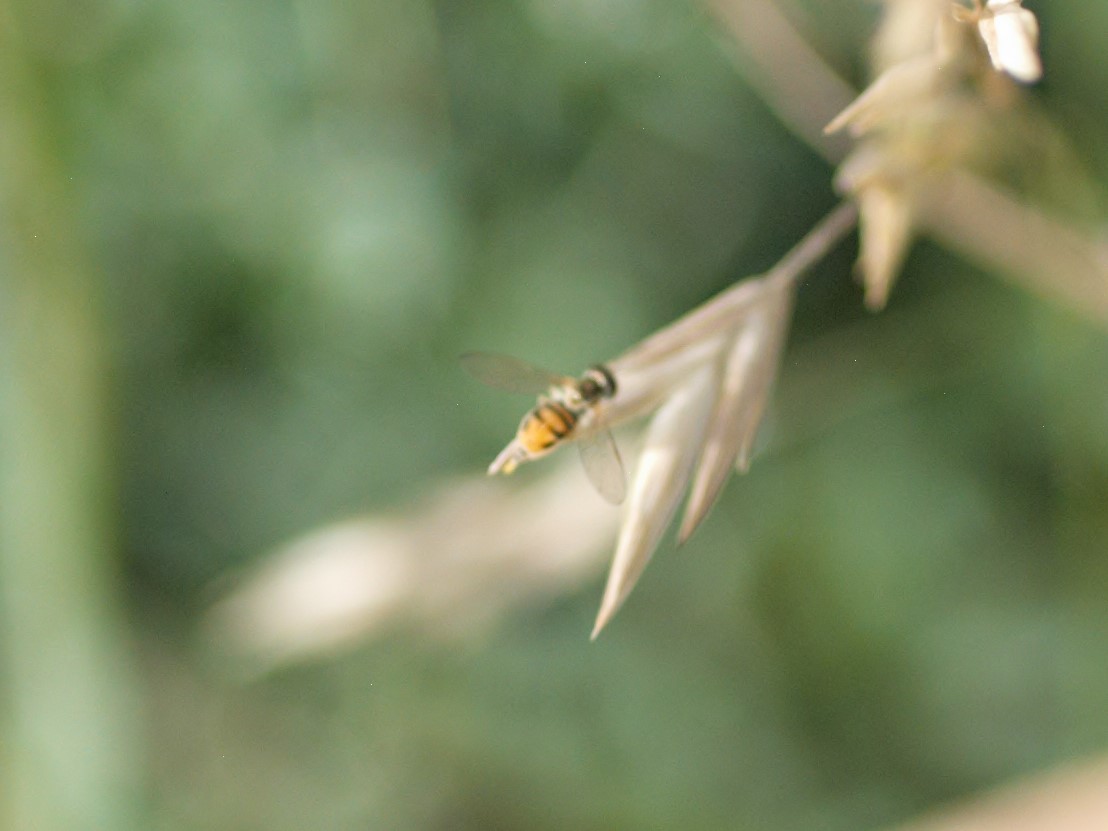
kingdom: Animalia
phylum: Arthropoda
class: Insecta
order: Diptera
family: Syrphidae
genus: Toxomerus
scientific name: Toxomerus marginatus
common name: Syrphid fly
